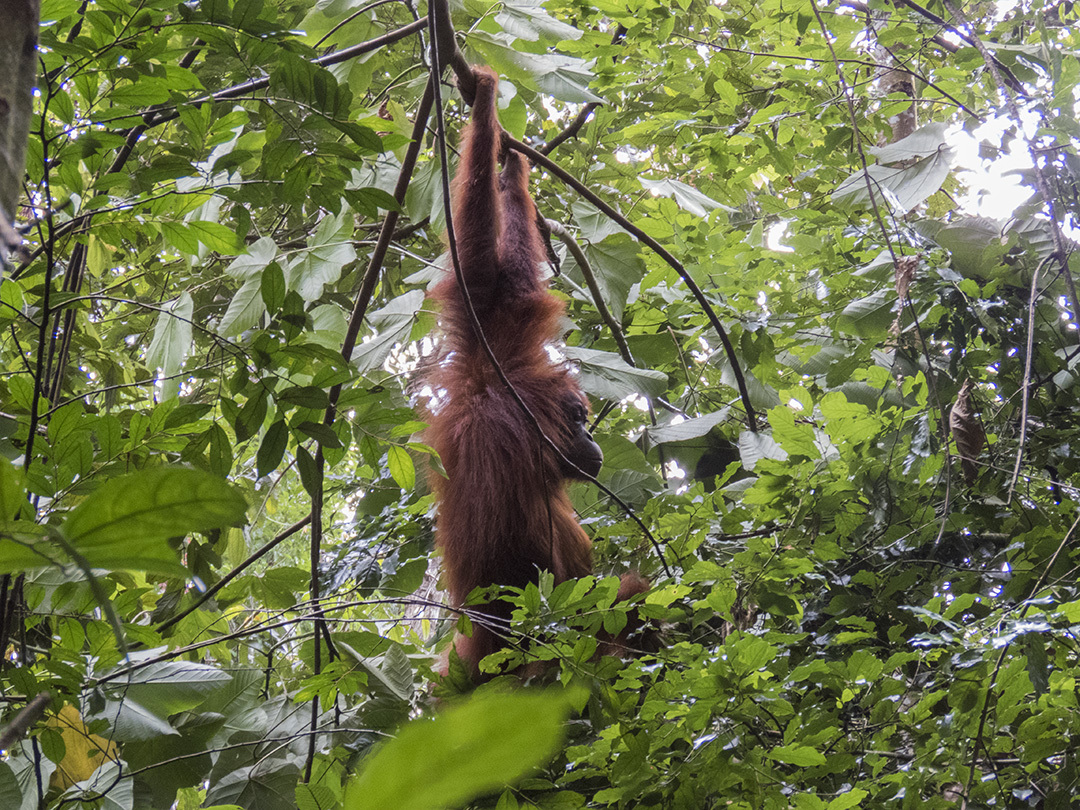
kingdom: Animalia
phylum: Chordata
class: Mammalia
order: Primates
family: Hominidae
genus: Pongo
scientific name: Pongo abelii
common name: Sumatran orangutan
